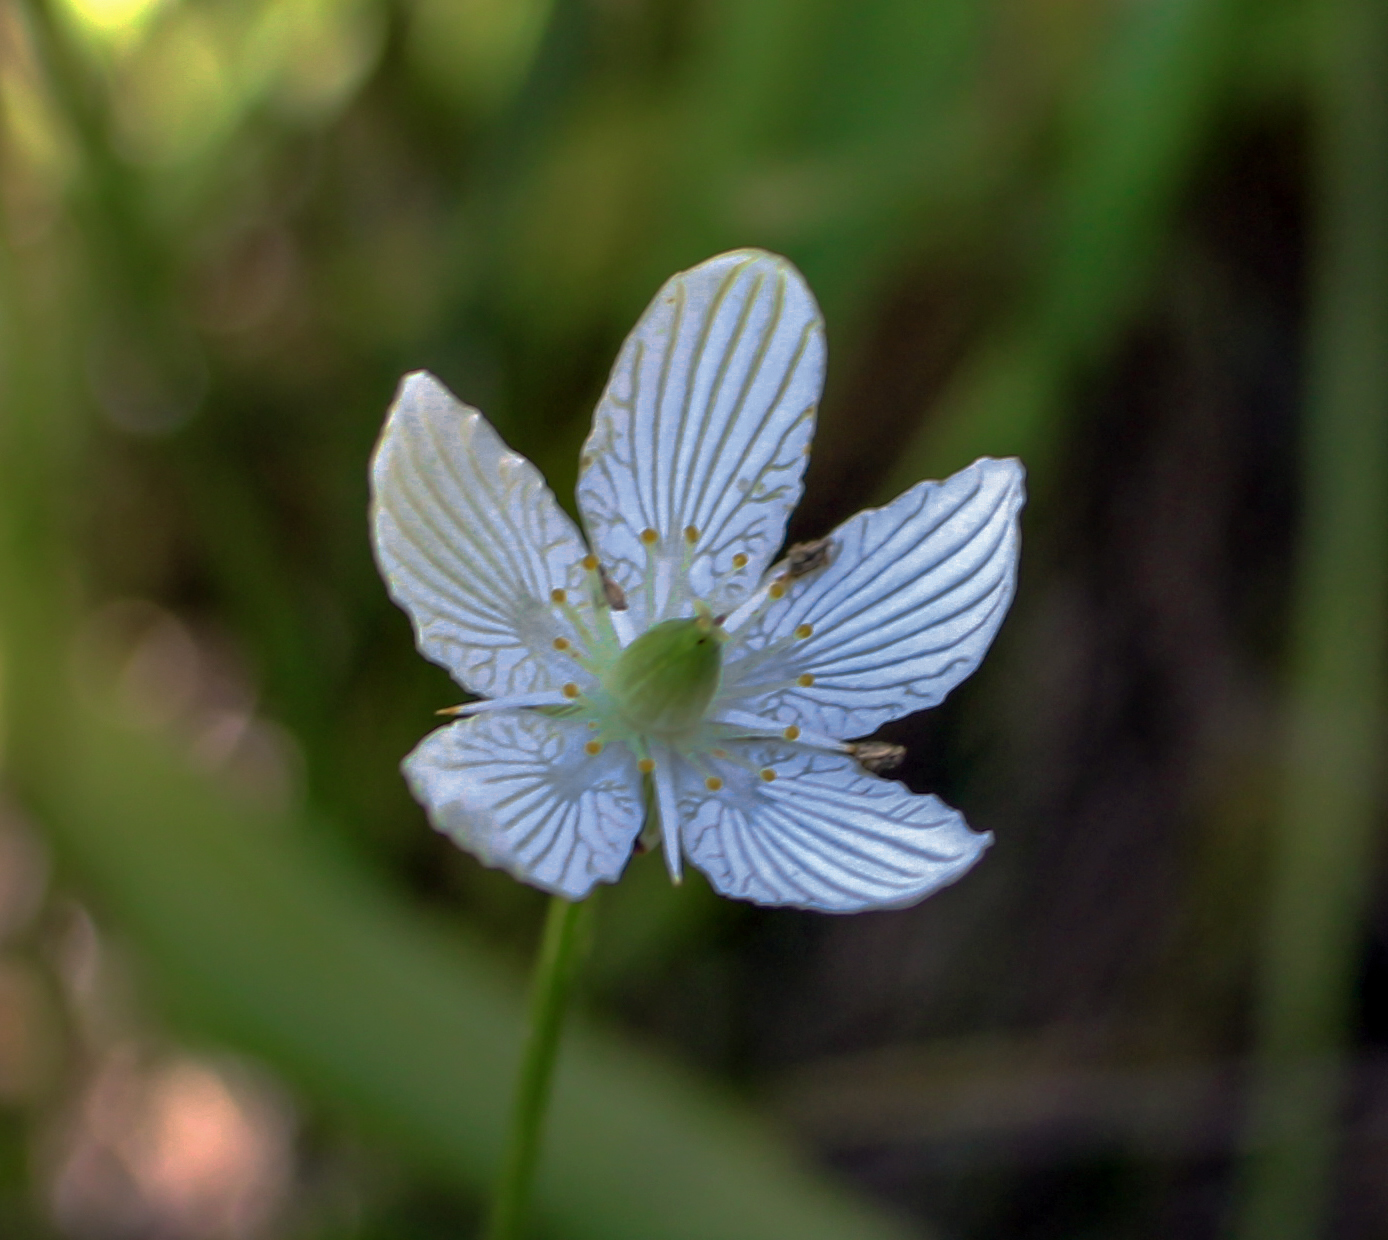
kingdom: Plantae
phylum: Tracheophyta
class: Magnoliopsida
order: Celastrales
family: Parnassiaceae
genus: Parnassia
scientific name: Parnassia glauca
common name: American grass-of-parnassus
